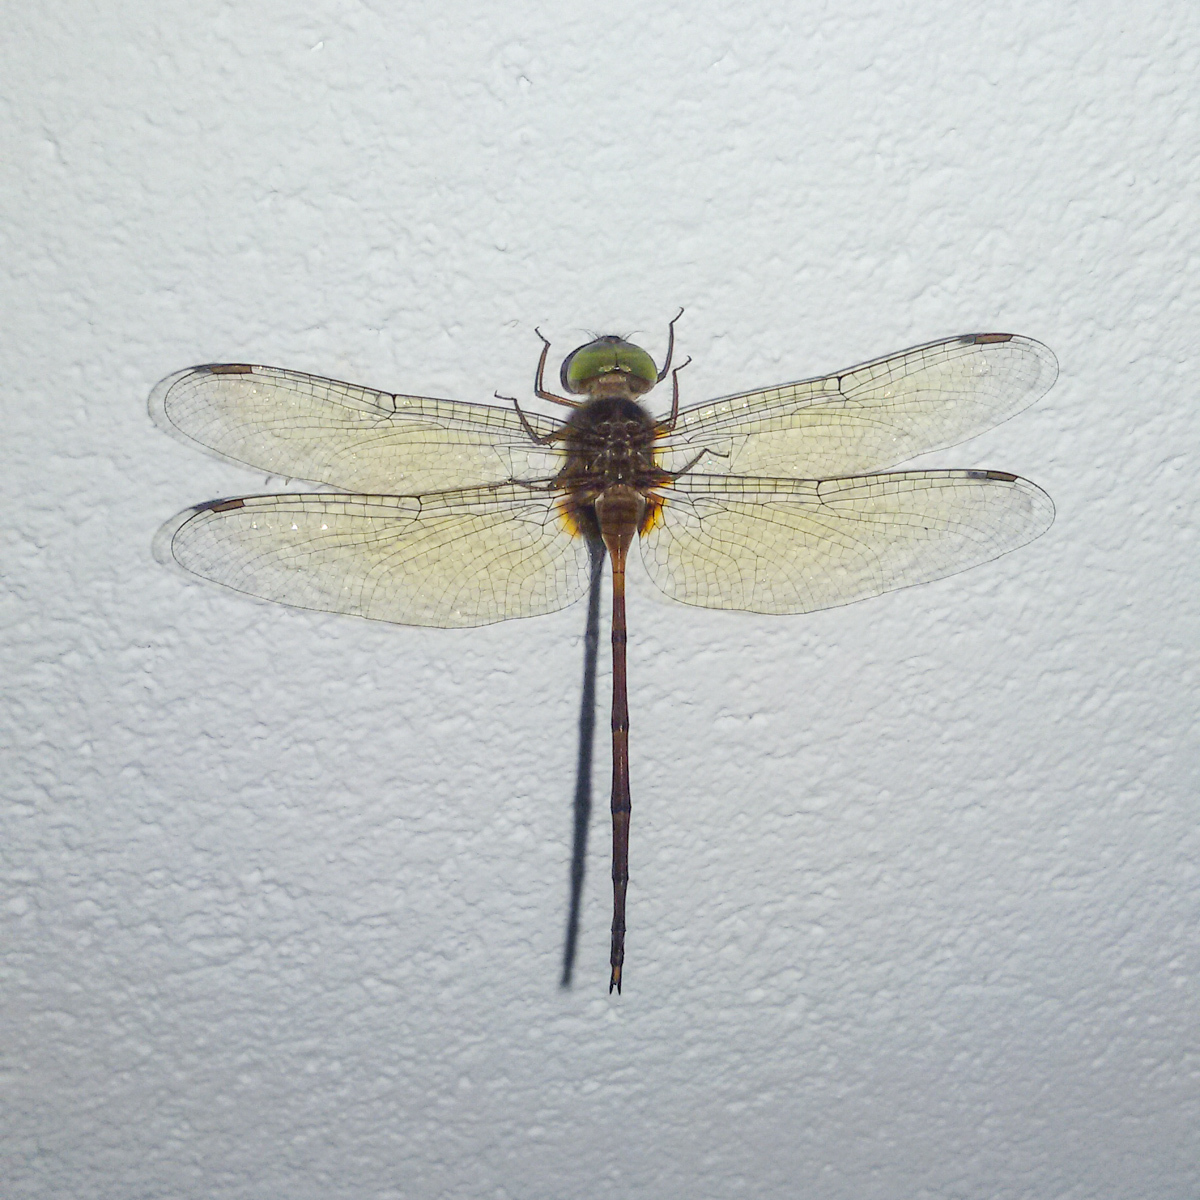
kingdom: Animalia
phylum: Arthropoda
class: Insecta
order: Odonata
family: Libellulidae
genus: Zyxomma
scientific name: Zyxomma petiolatum
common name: Dingy dusk-darter
